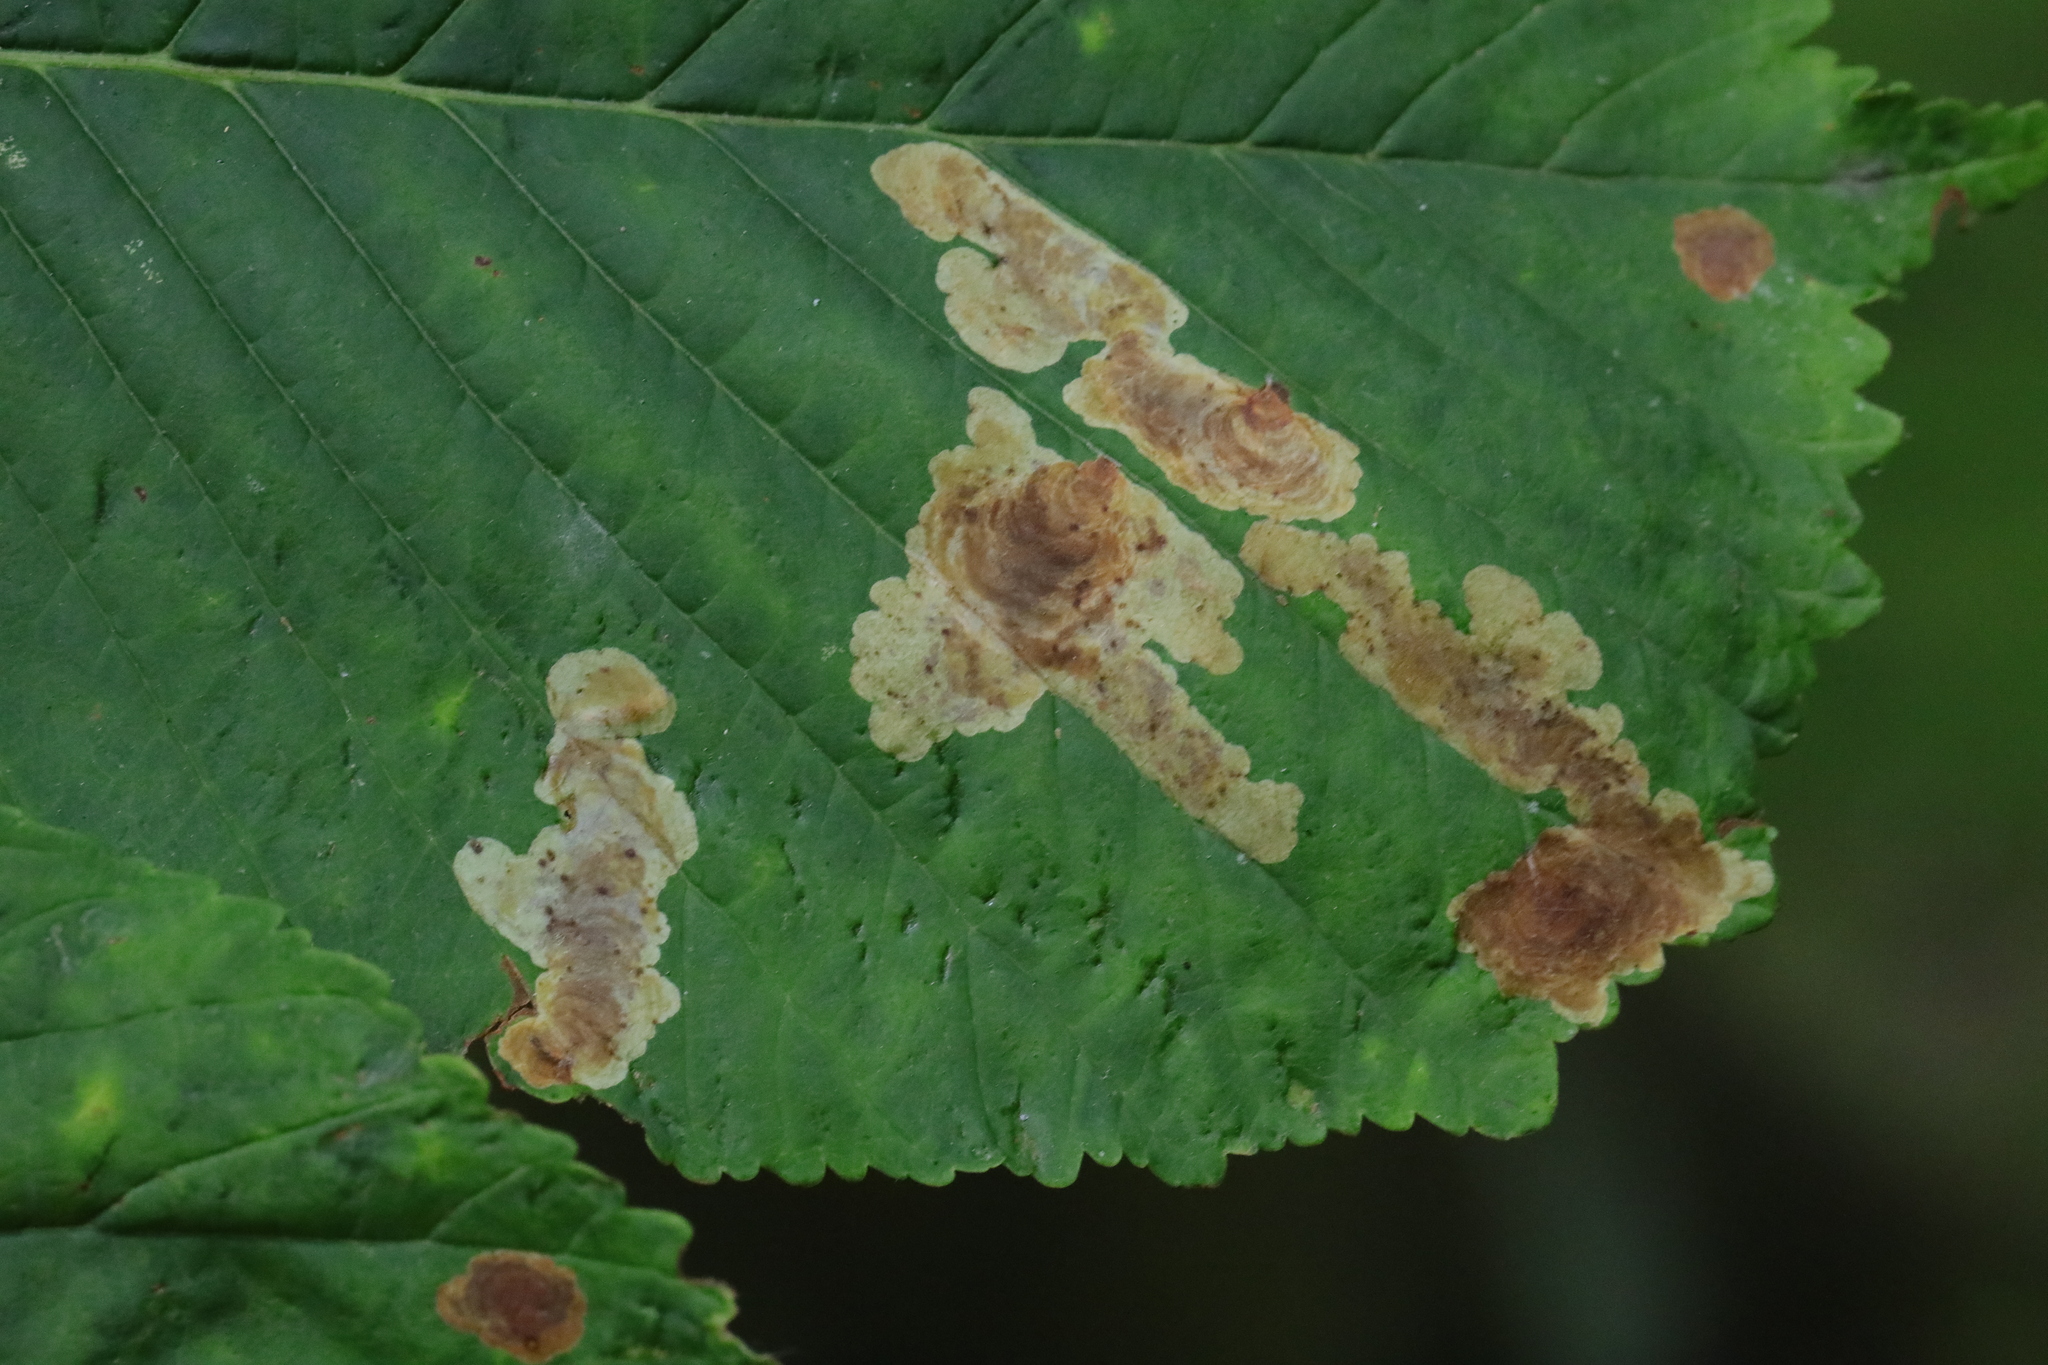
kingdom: Animalia
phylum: Arthropoda
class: Insecta
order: Lepidoptera
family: Gracillariidae
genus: Cameraria
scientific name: Cameraria ohridella
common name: Horse-chestnut leaf-miner
